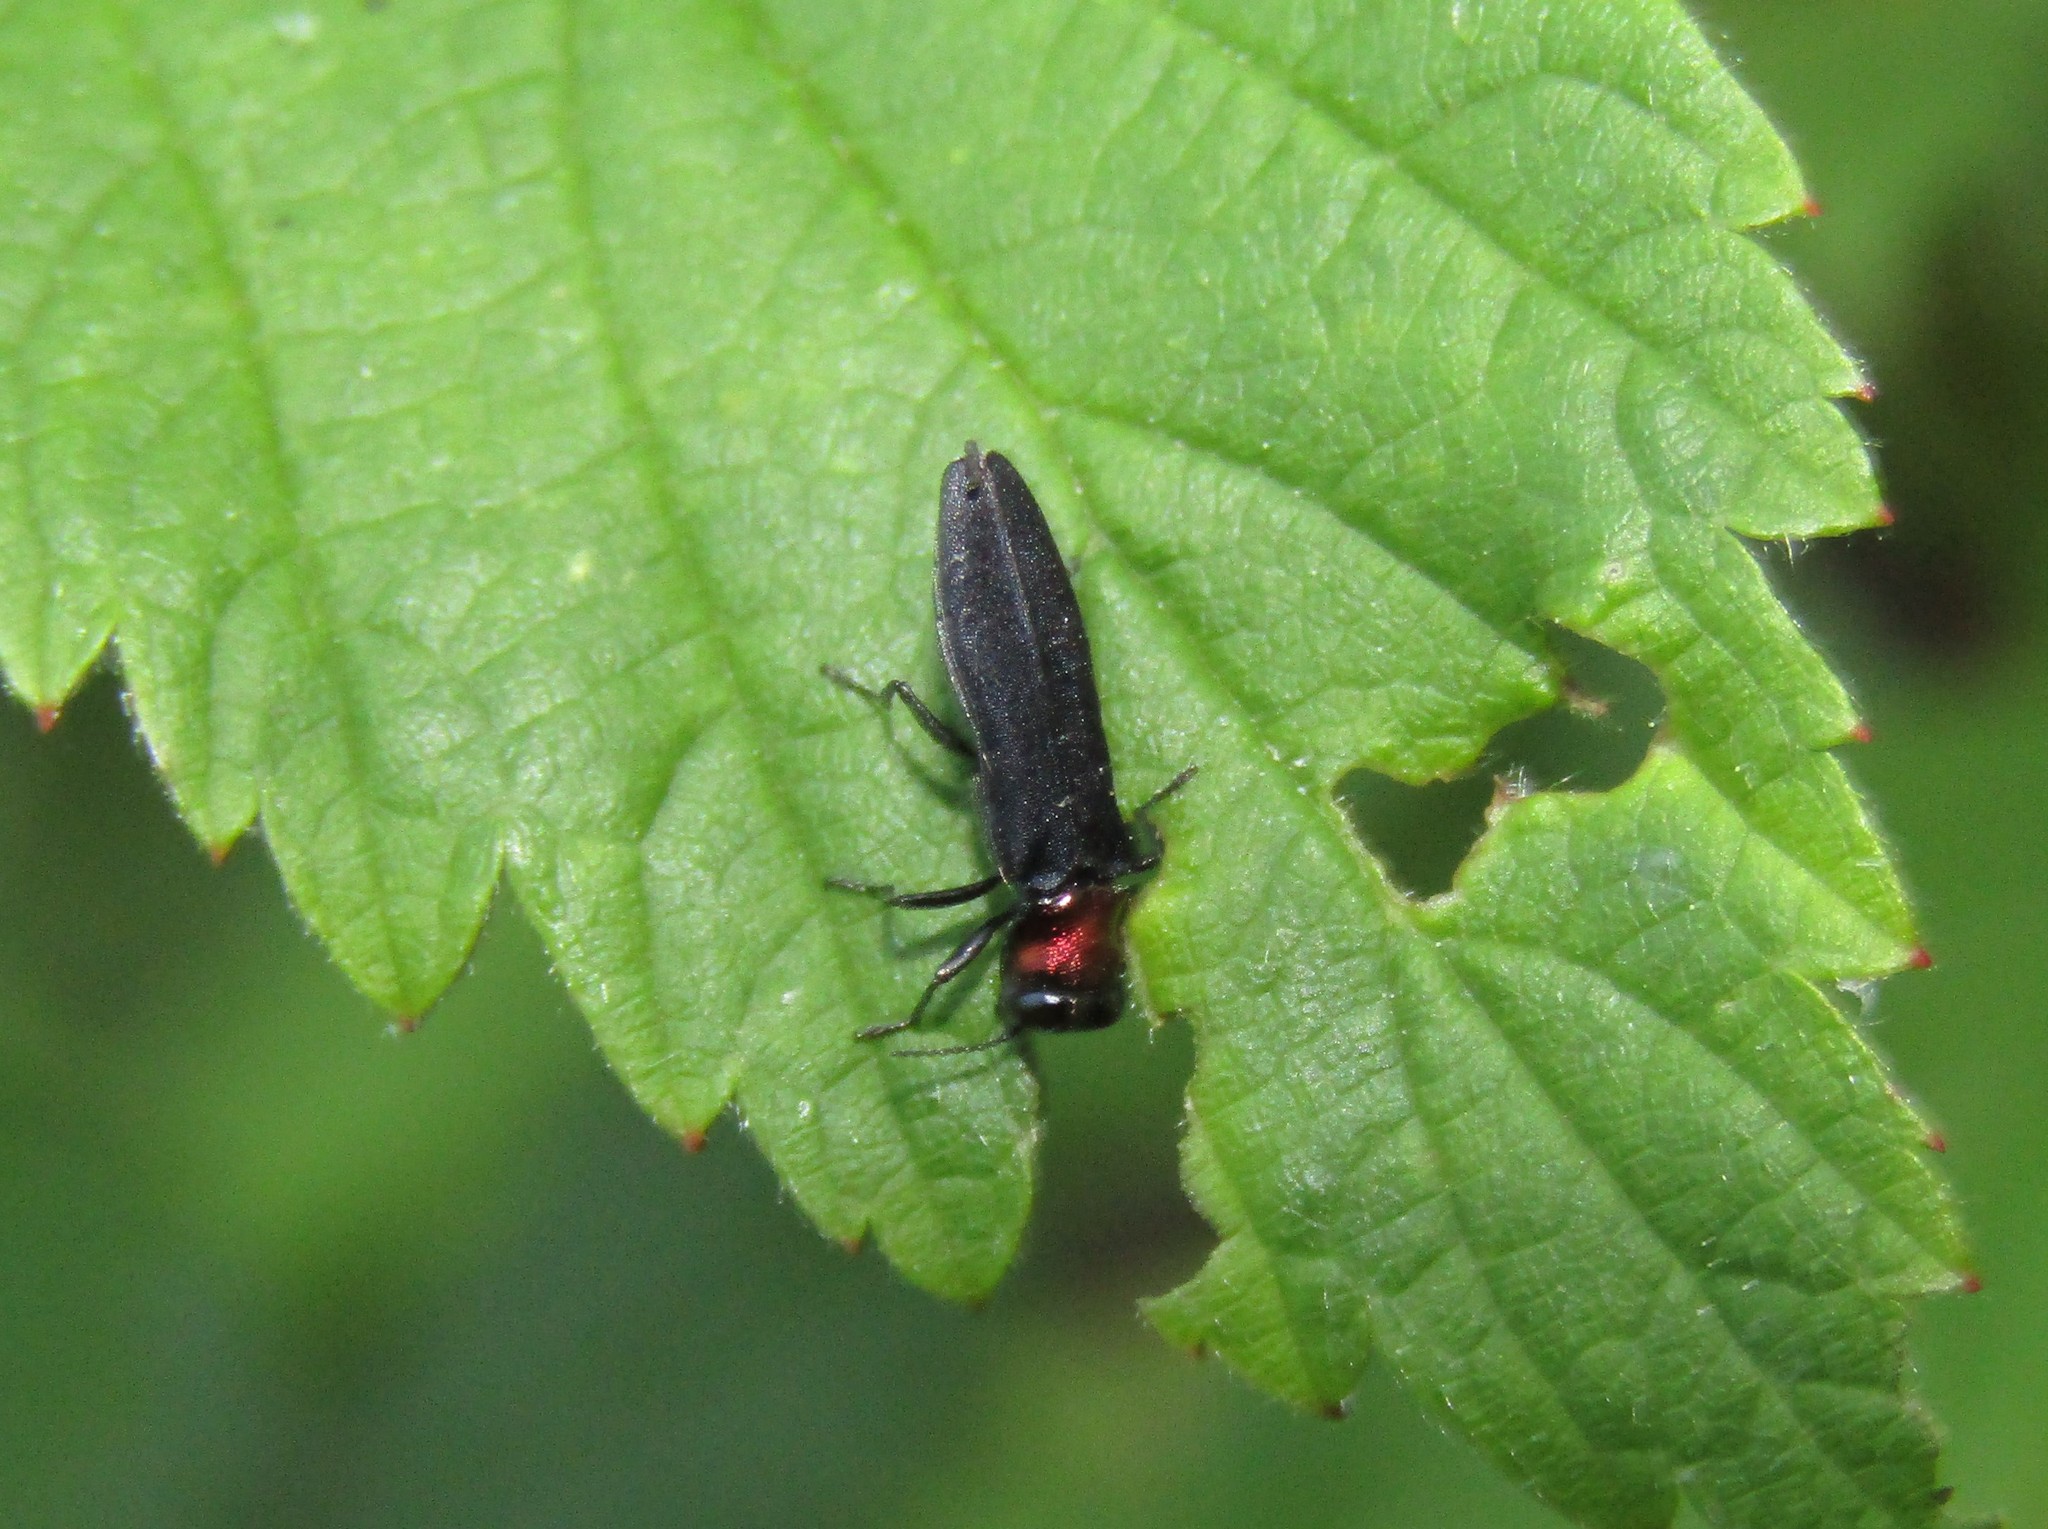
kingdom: Animalia
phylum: Arthropoda
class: Insecta
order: Coleoptera
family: Buprestidae
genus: Agrilus
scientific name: Agrilus ruficollis
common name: Red-necked cane borer beetle
